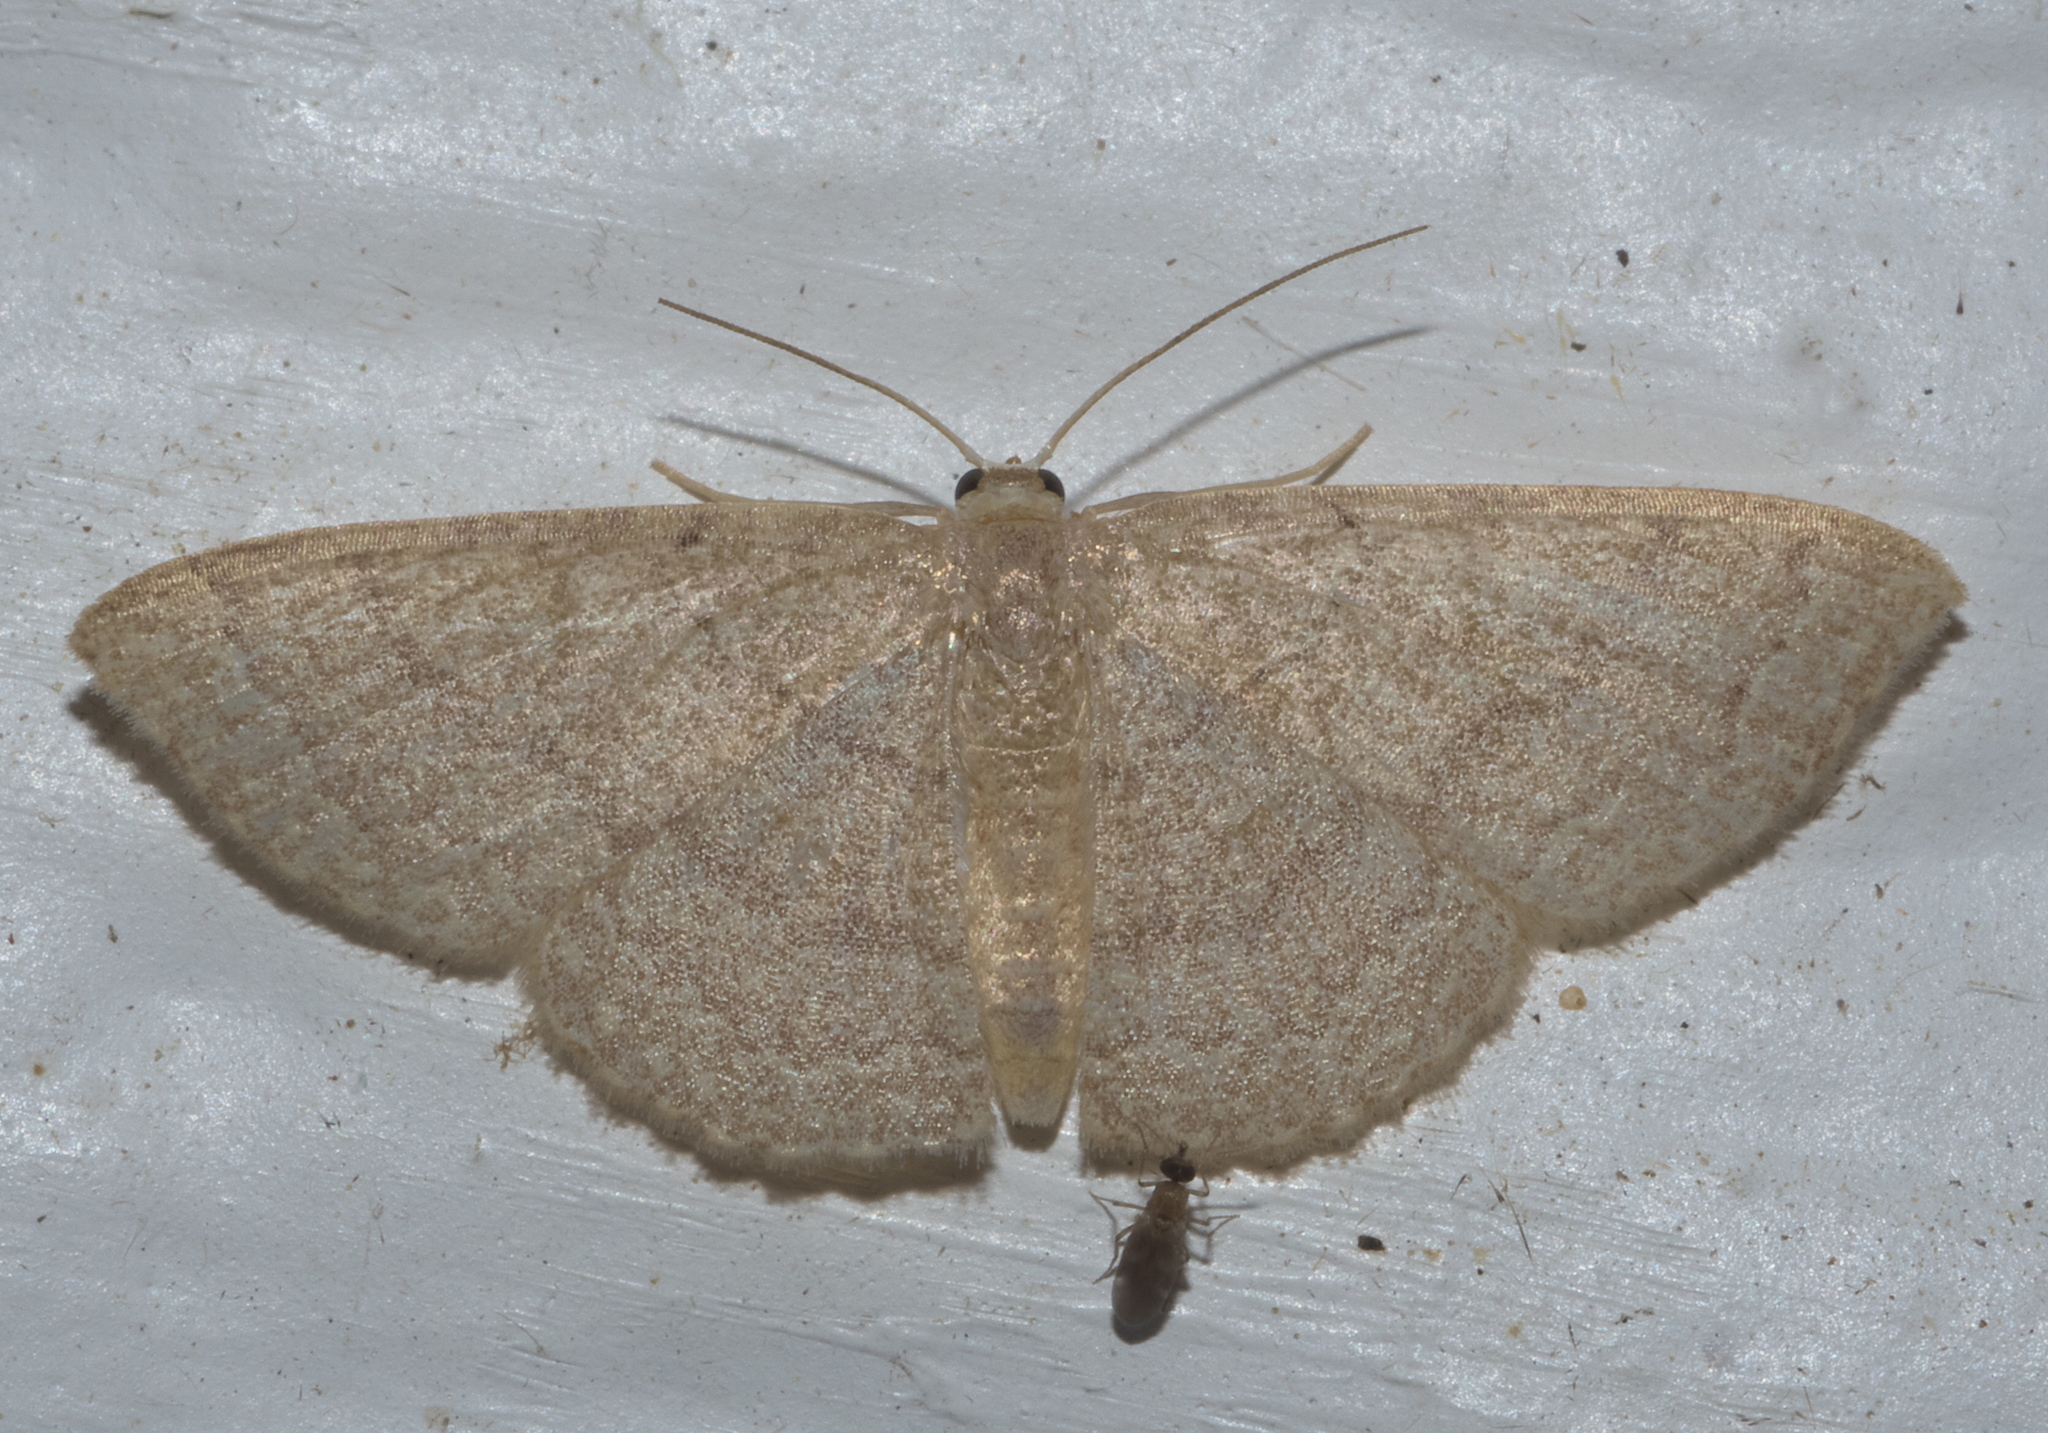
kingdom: Animalia
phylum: Arthropoda
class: Insecta
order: Lepidoptera
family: Geometridae
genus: Pleuroprucha
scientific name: Pleuroprucha insulsaria
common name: Common tan wave
